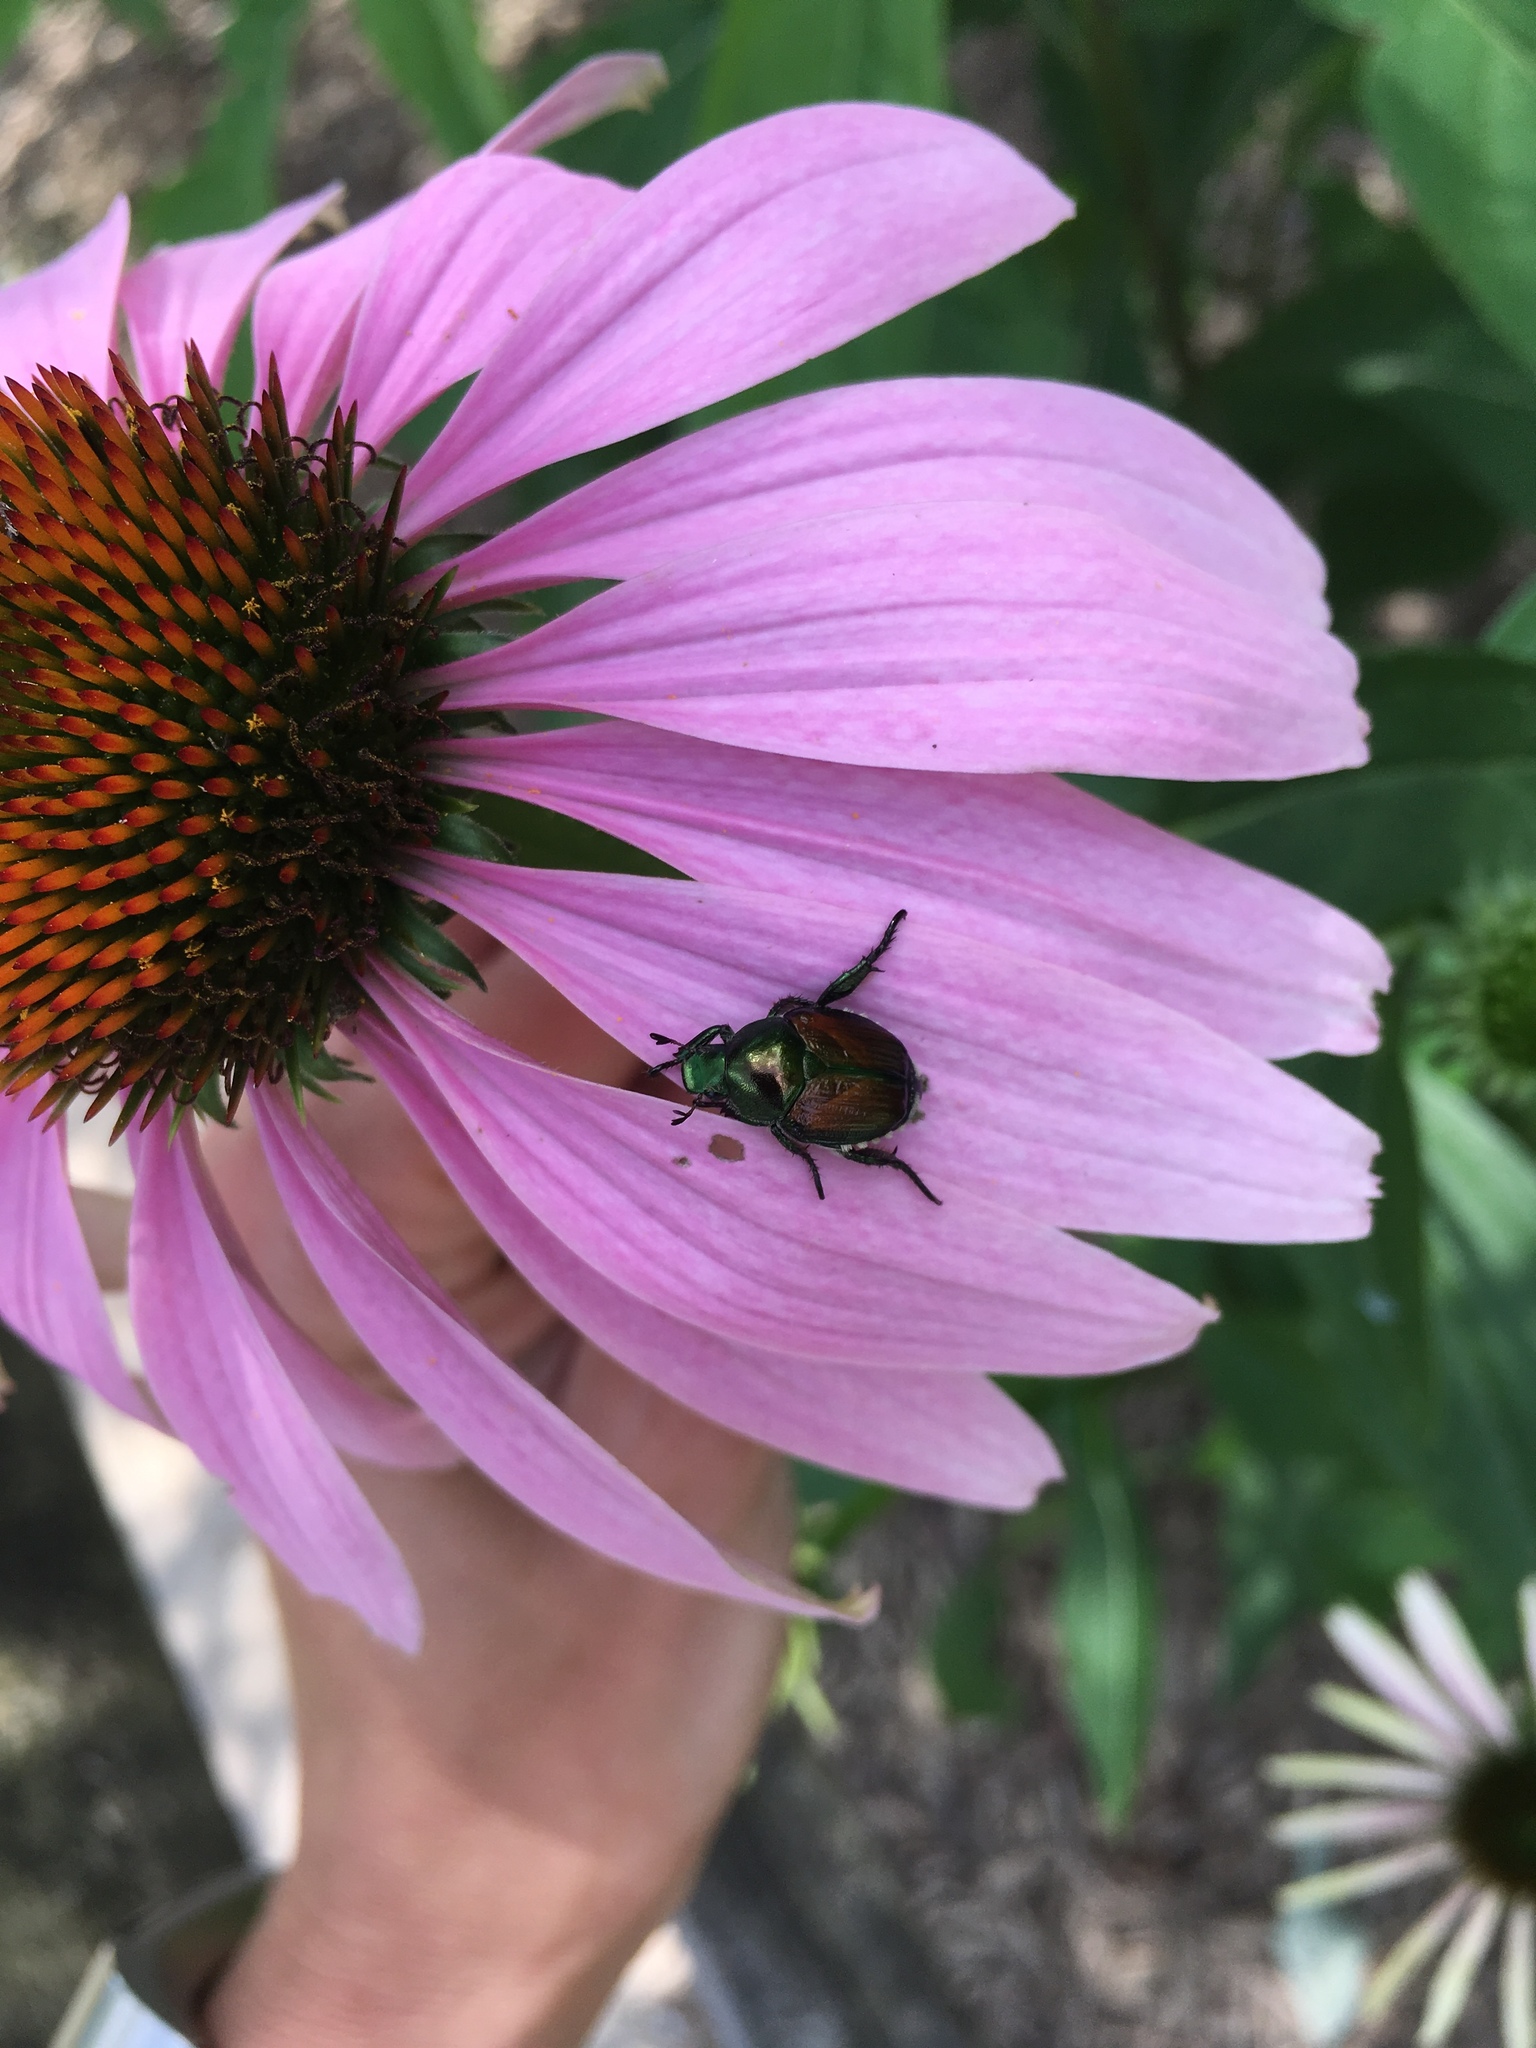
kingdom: Animalia
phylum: Arthropoda
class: Insecta
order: Coleoptera
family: Scarabaeidae
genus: Popillia
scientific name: Popillia japonica
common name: Japanese beetle
